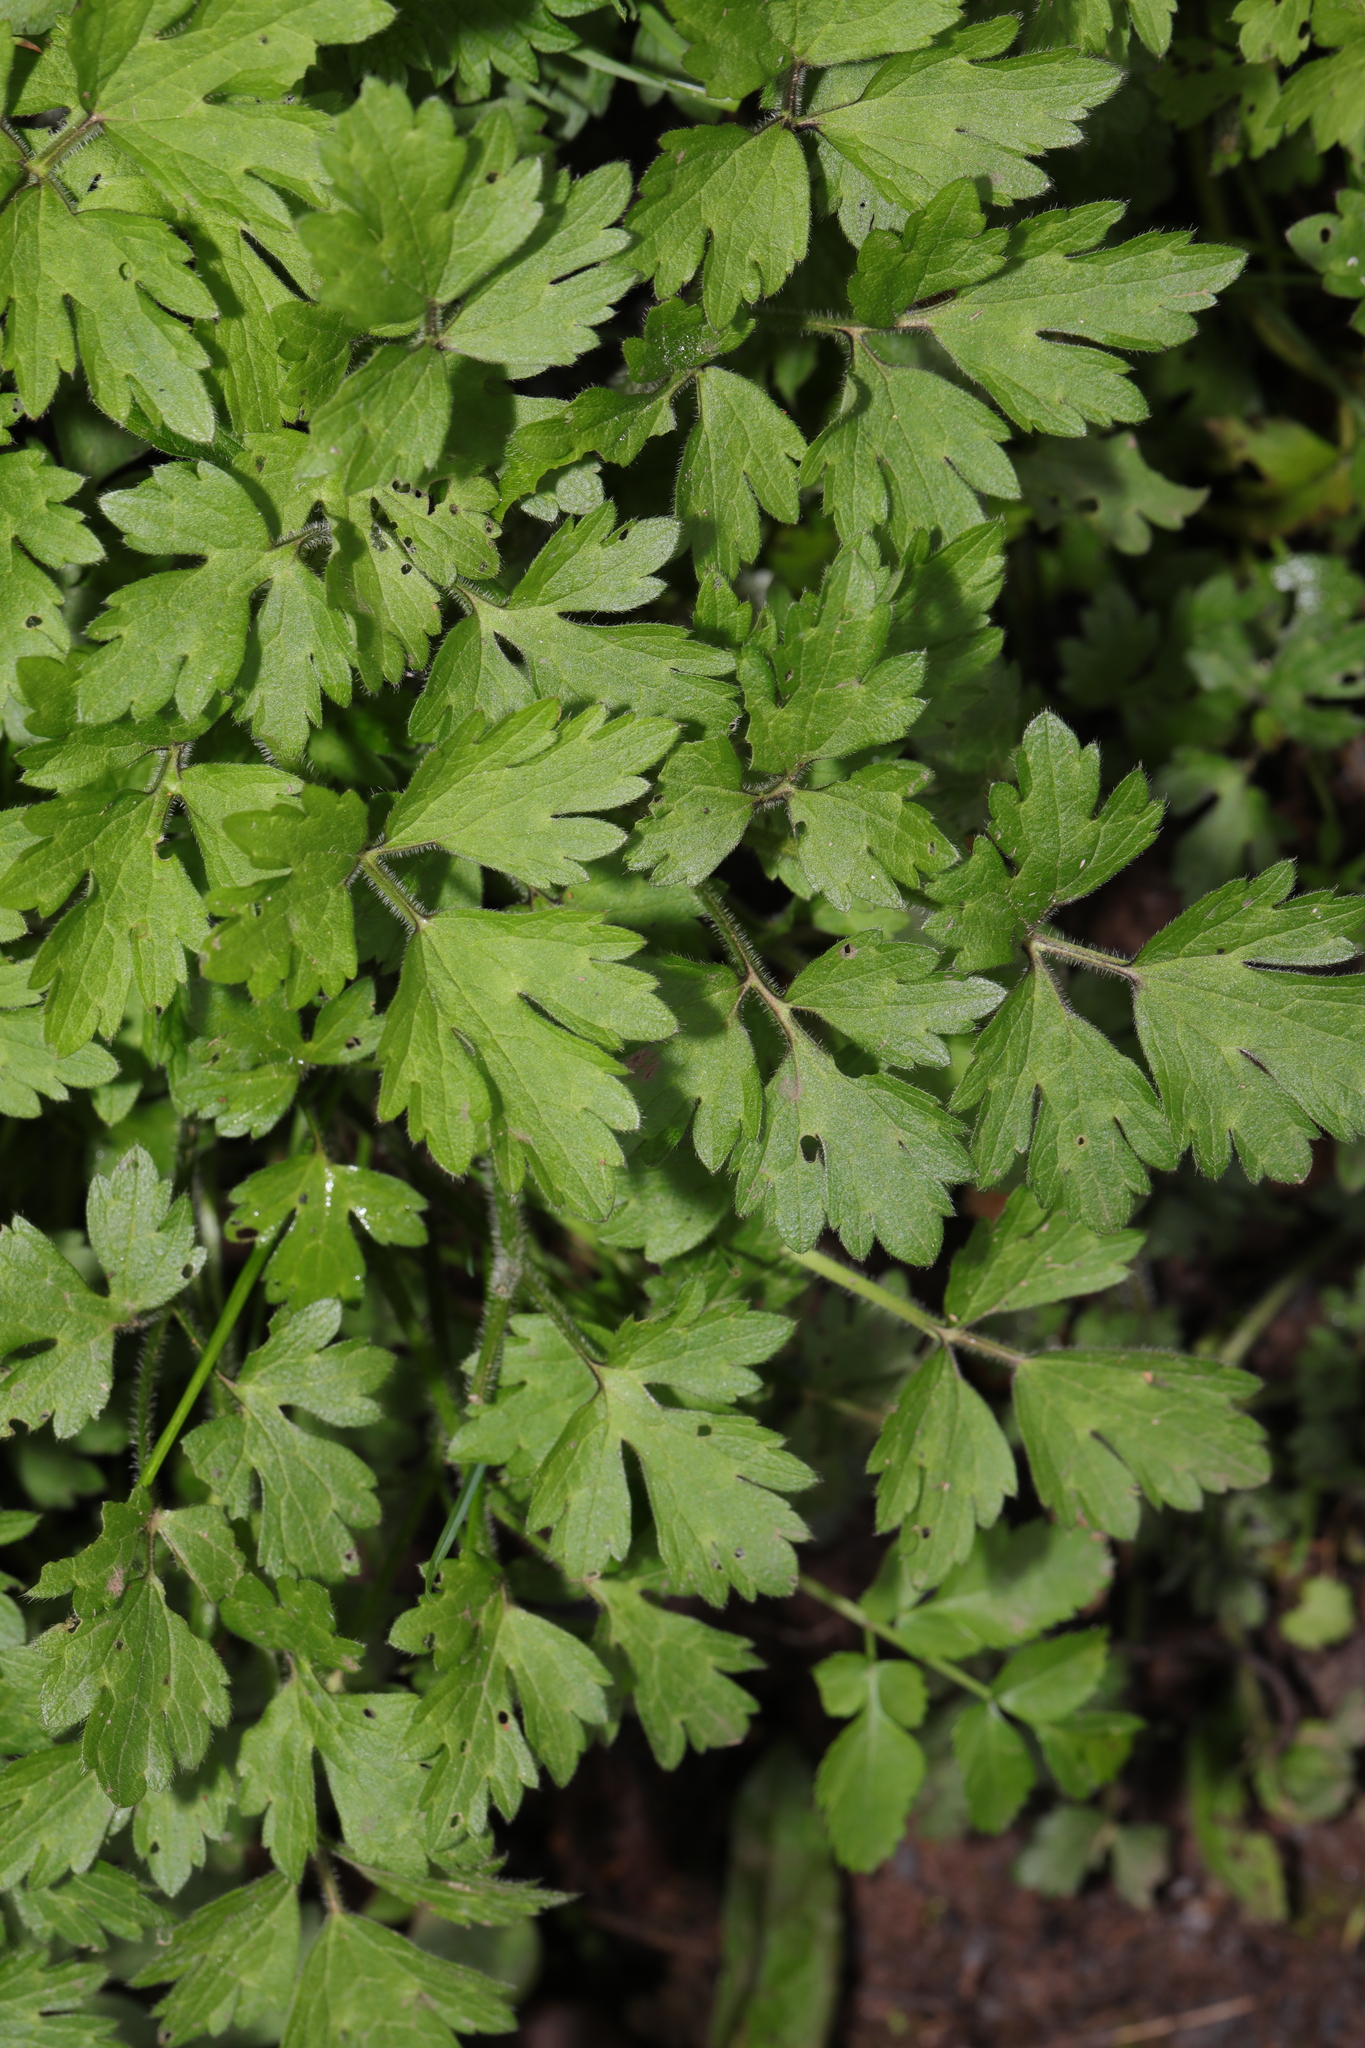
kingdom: Plantae
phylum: Tracheophyta
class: Magnoliopsida
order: Ranunculales
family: Ranunculaceae
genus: Ranunculus
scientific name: Ranunculus repens
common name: Creeping buttercup
